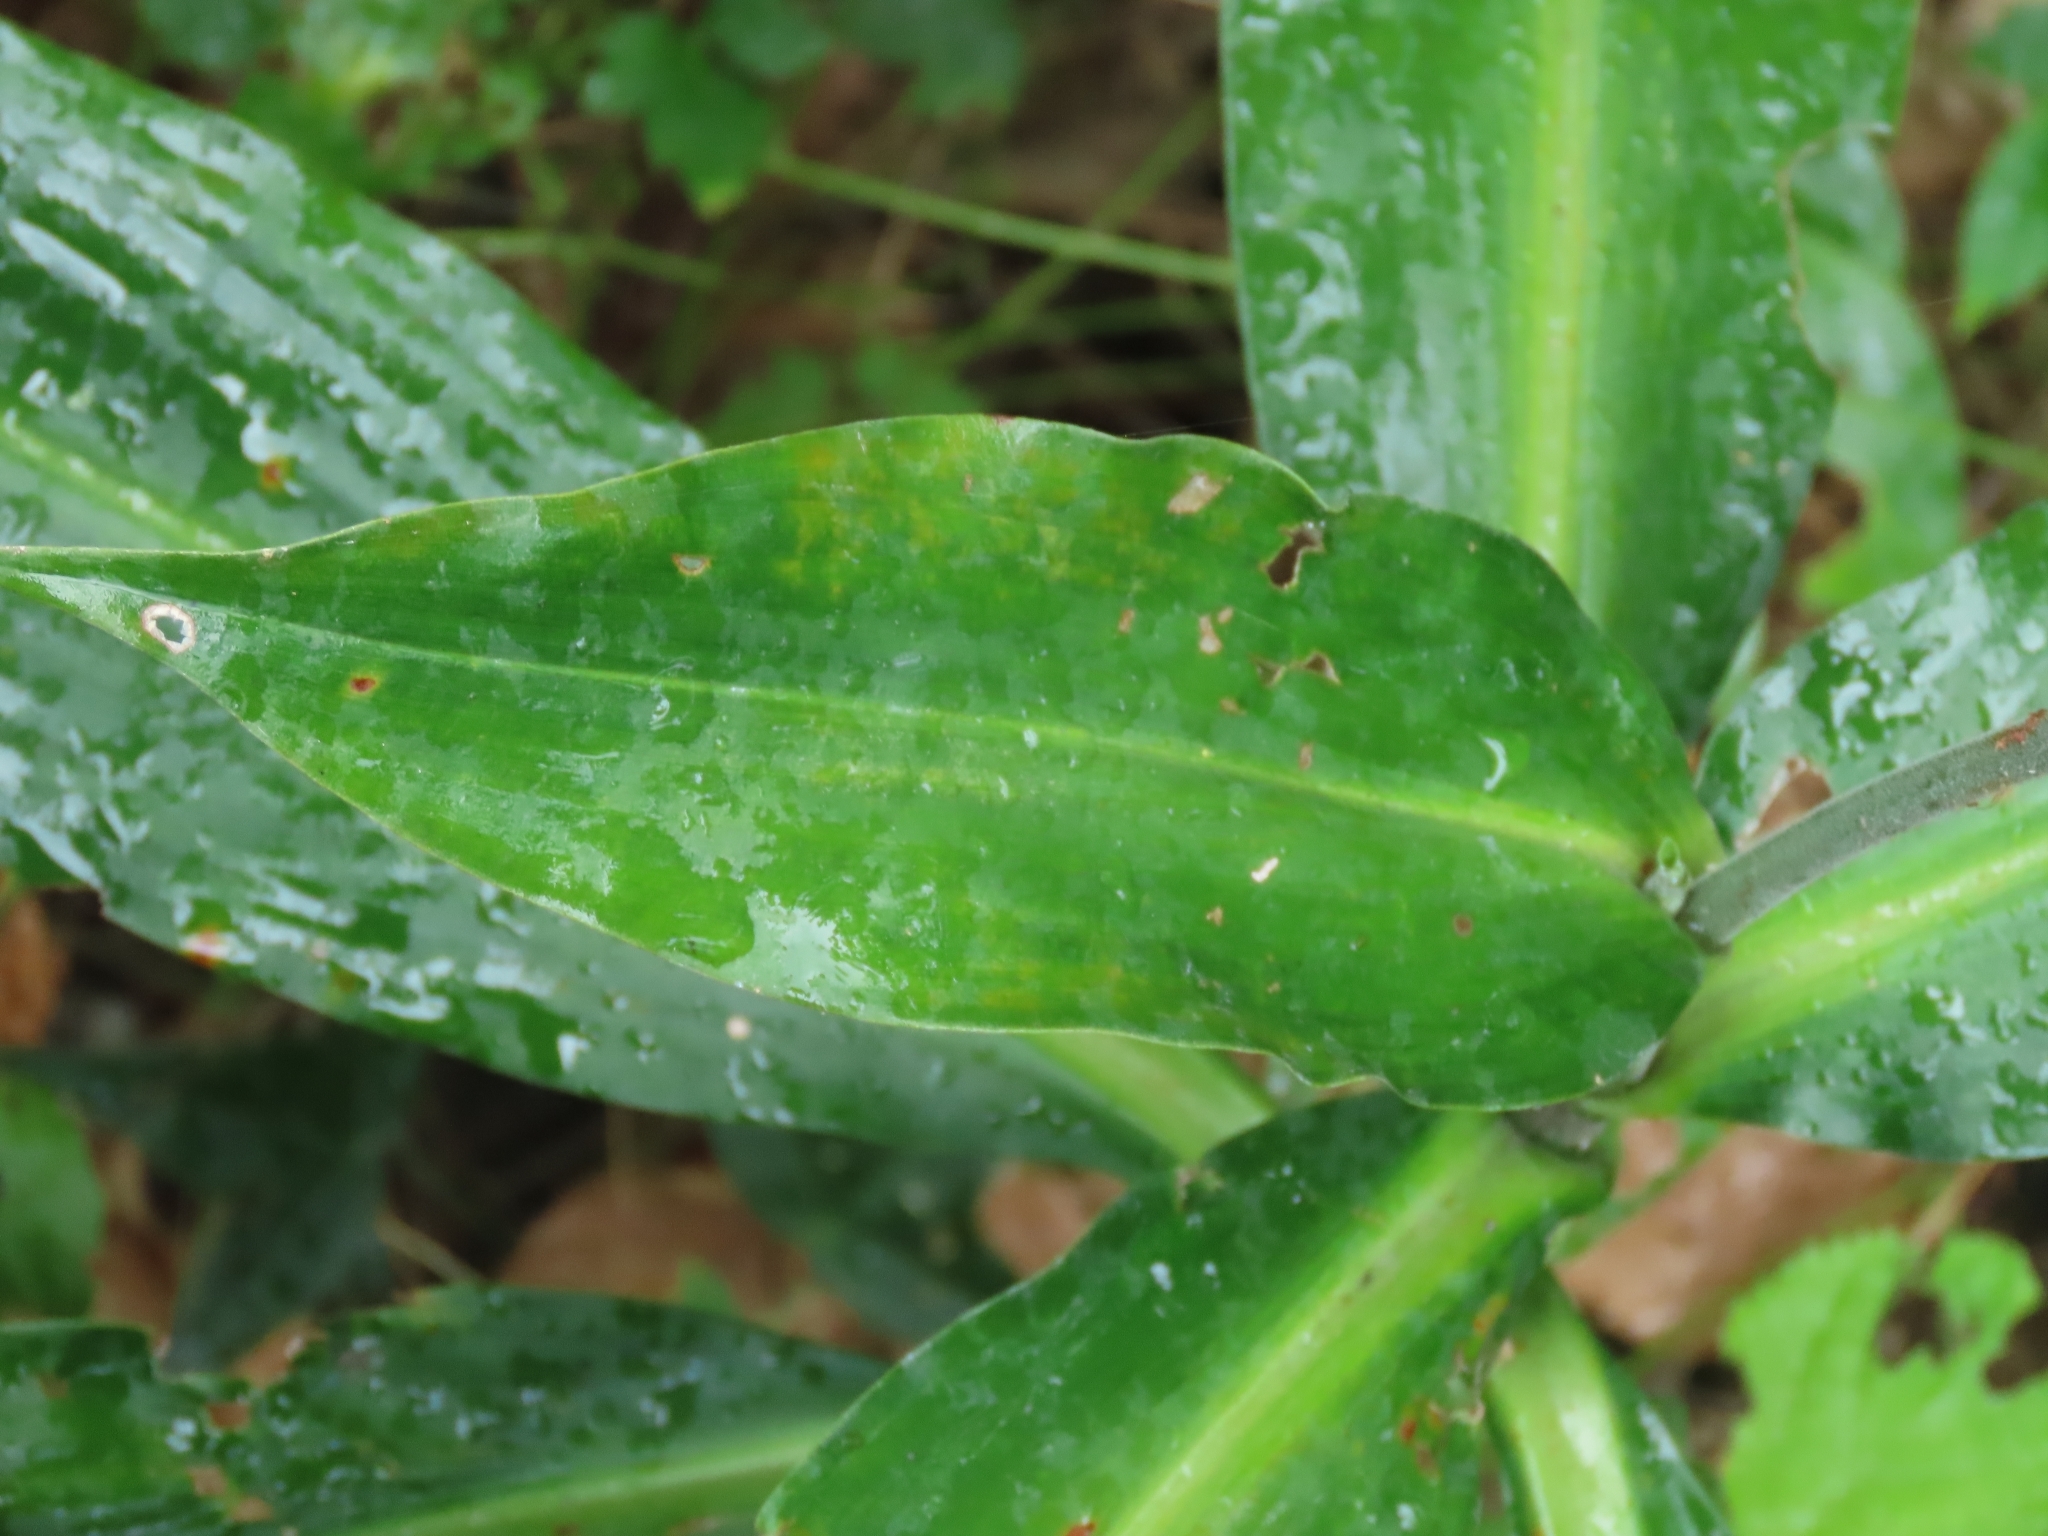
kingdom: Plantae
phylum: Tracheophyta
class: Liliopsida
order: Commelinales
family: Commelinaceae
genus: Pollia
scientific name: Pollia japonica
